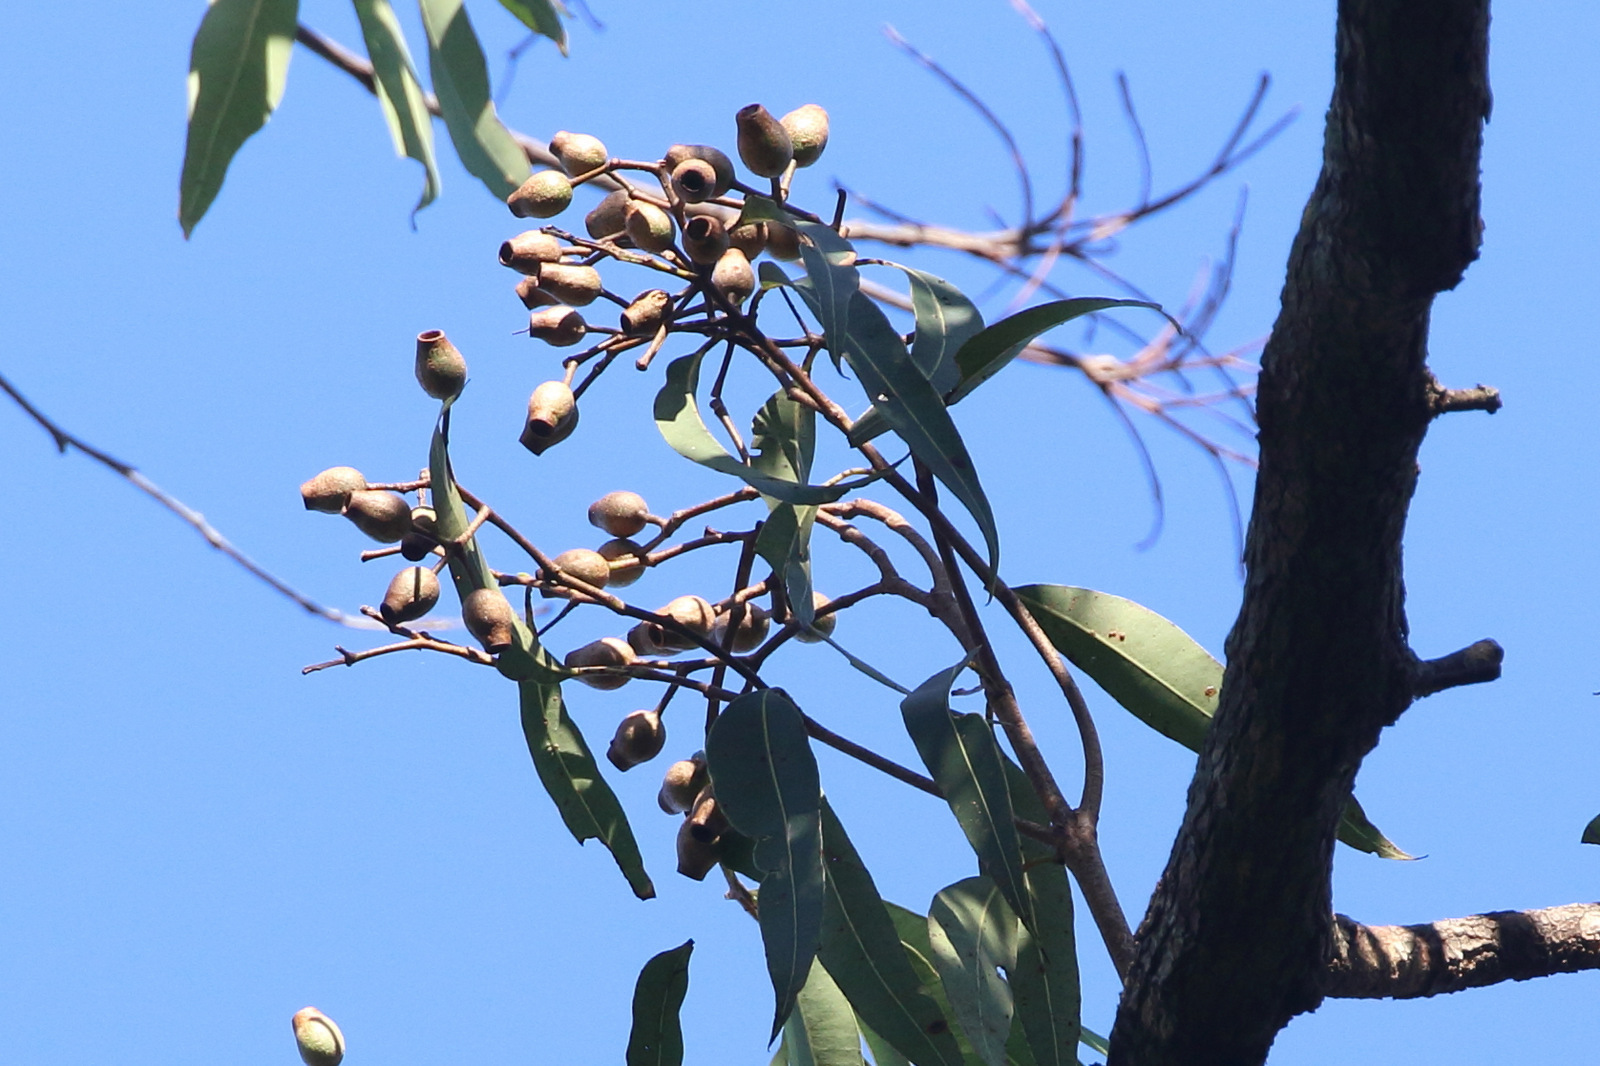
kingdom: Plantae
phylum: Tracheophyta
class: Magnoliopsida
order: Myrtales
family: Myrtaceae
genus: Corymbia
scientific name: Corymbia intermedia
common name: Pink-bloodwood
